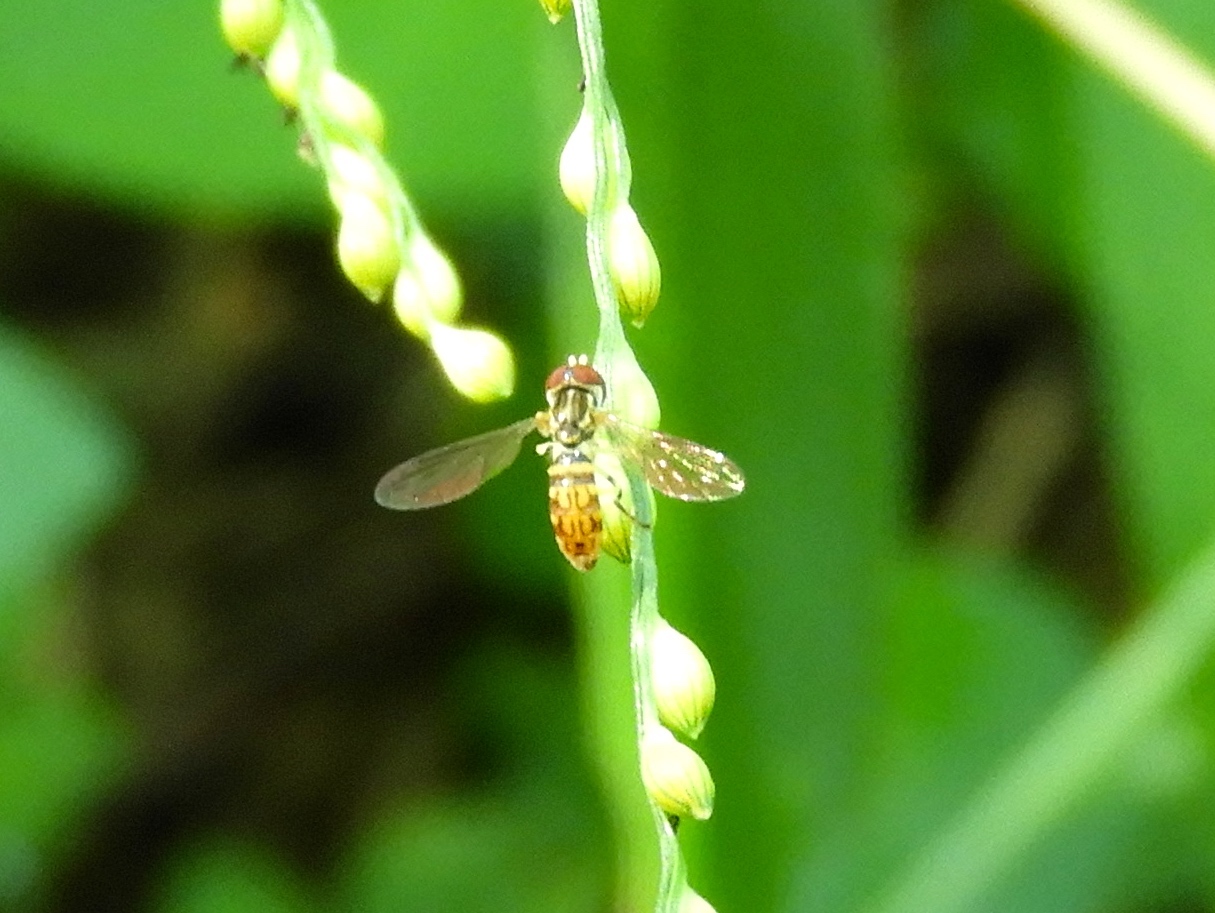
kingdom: Animalia
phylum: Arthropoda
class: Insecta
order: Diptera
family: Syrphidae
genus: Toxomerus
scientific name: Toxomerus pictus
